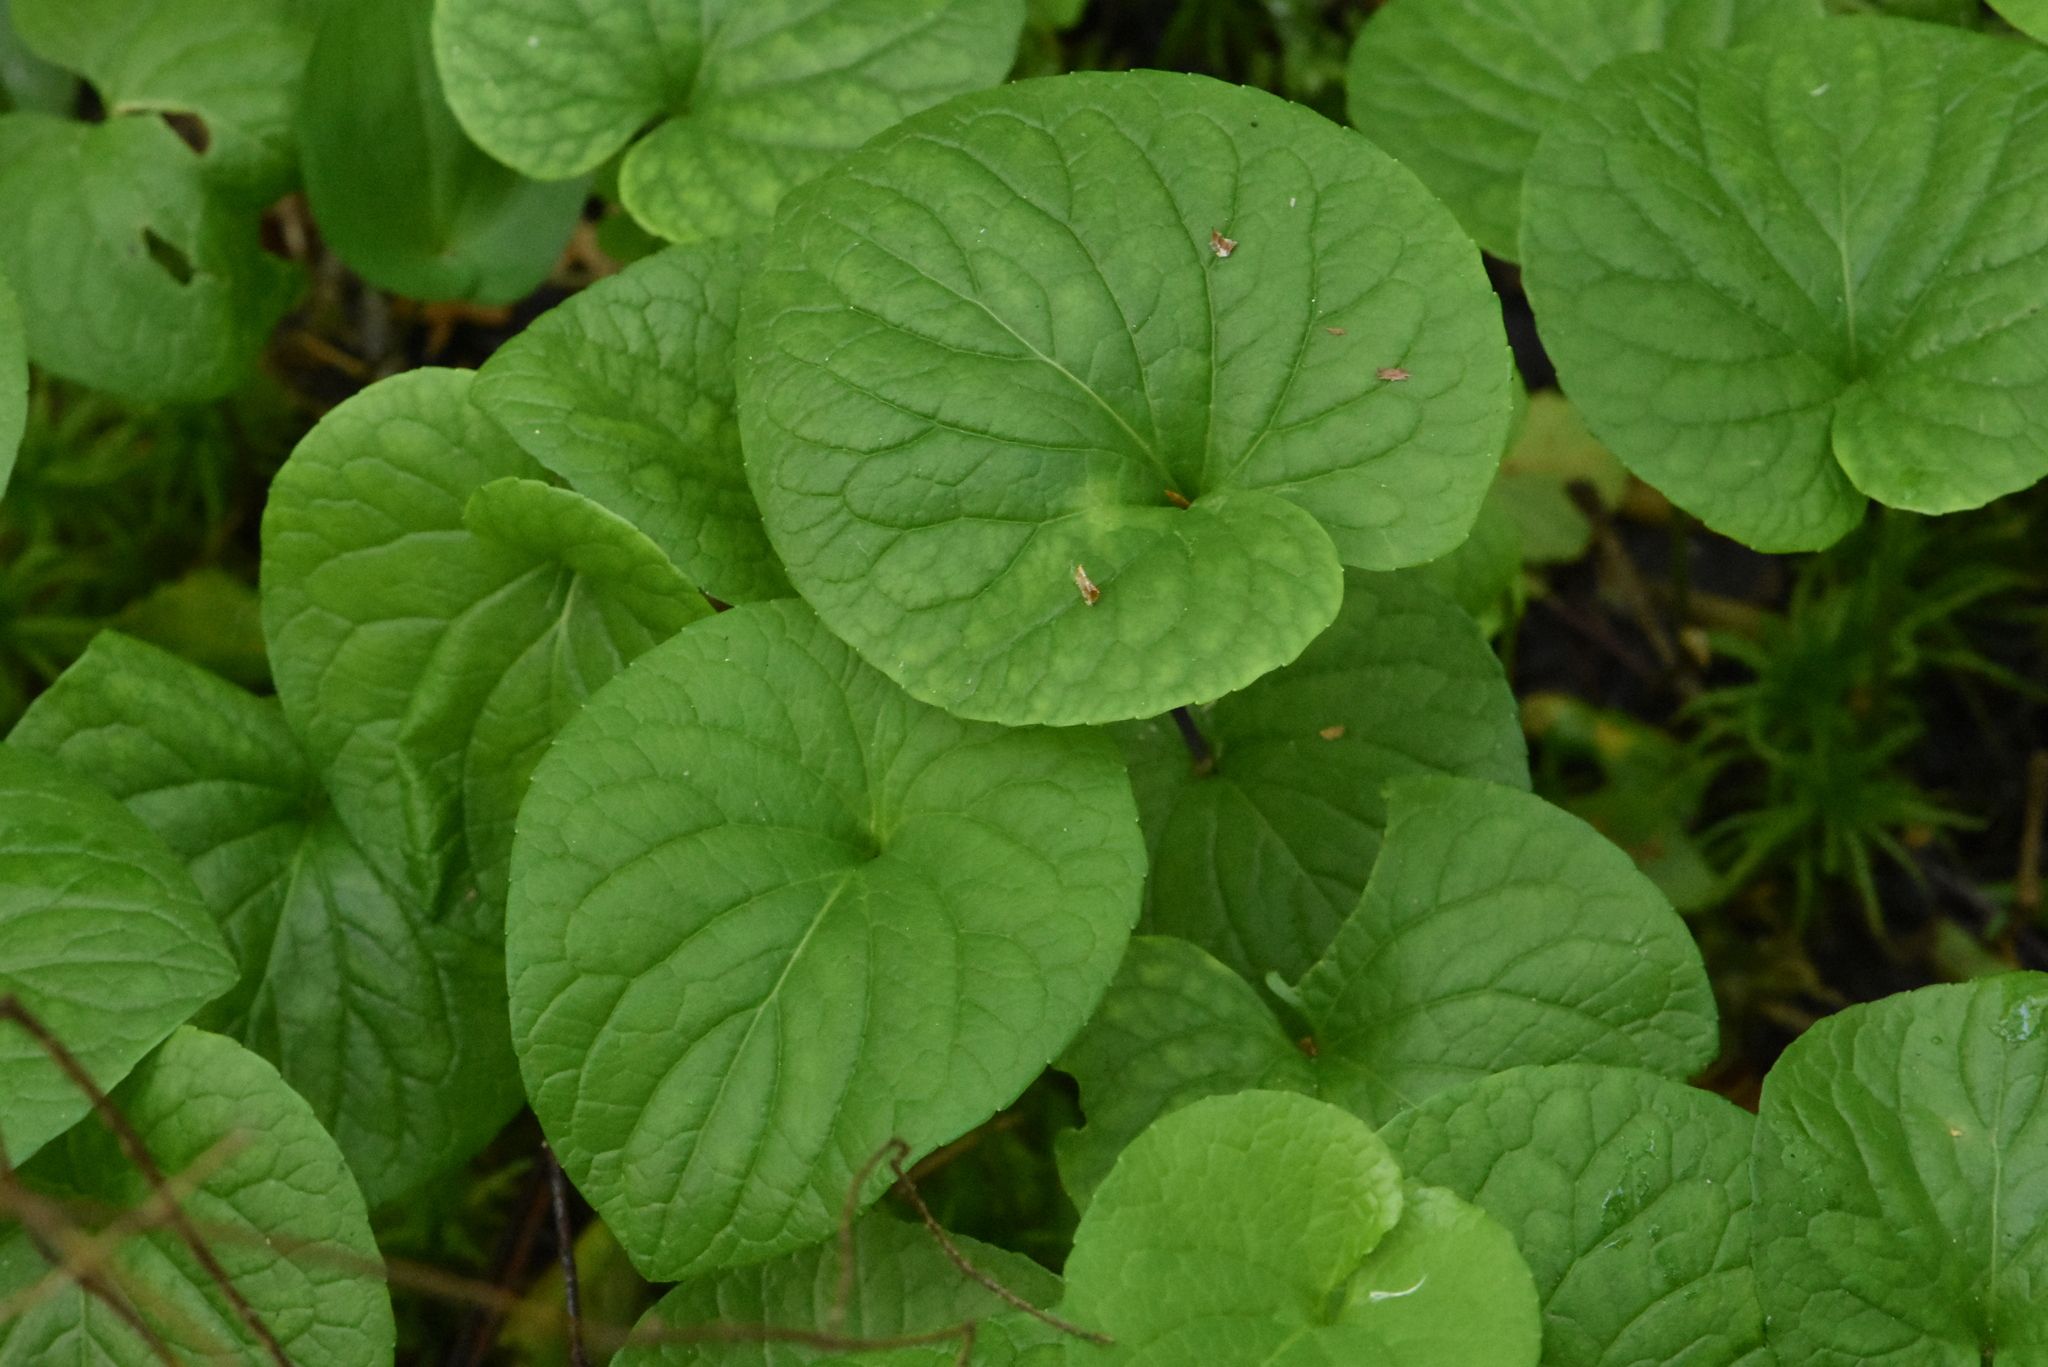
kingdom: Plantae
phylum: Tracheophyta
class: Magnoliopsida
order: Malpighiales
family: Violaceae
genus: Viola
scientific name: Viola epipsila
